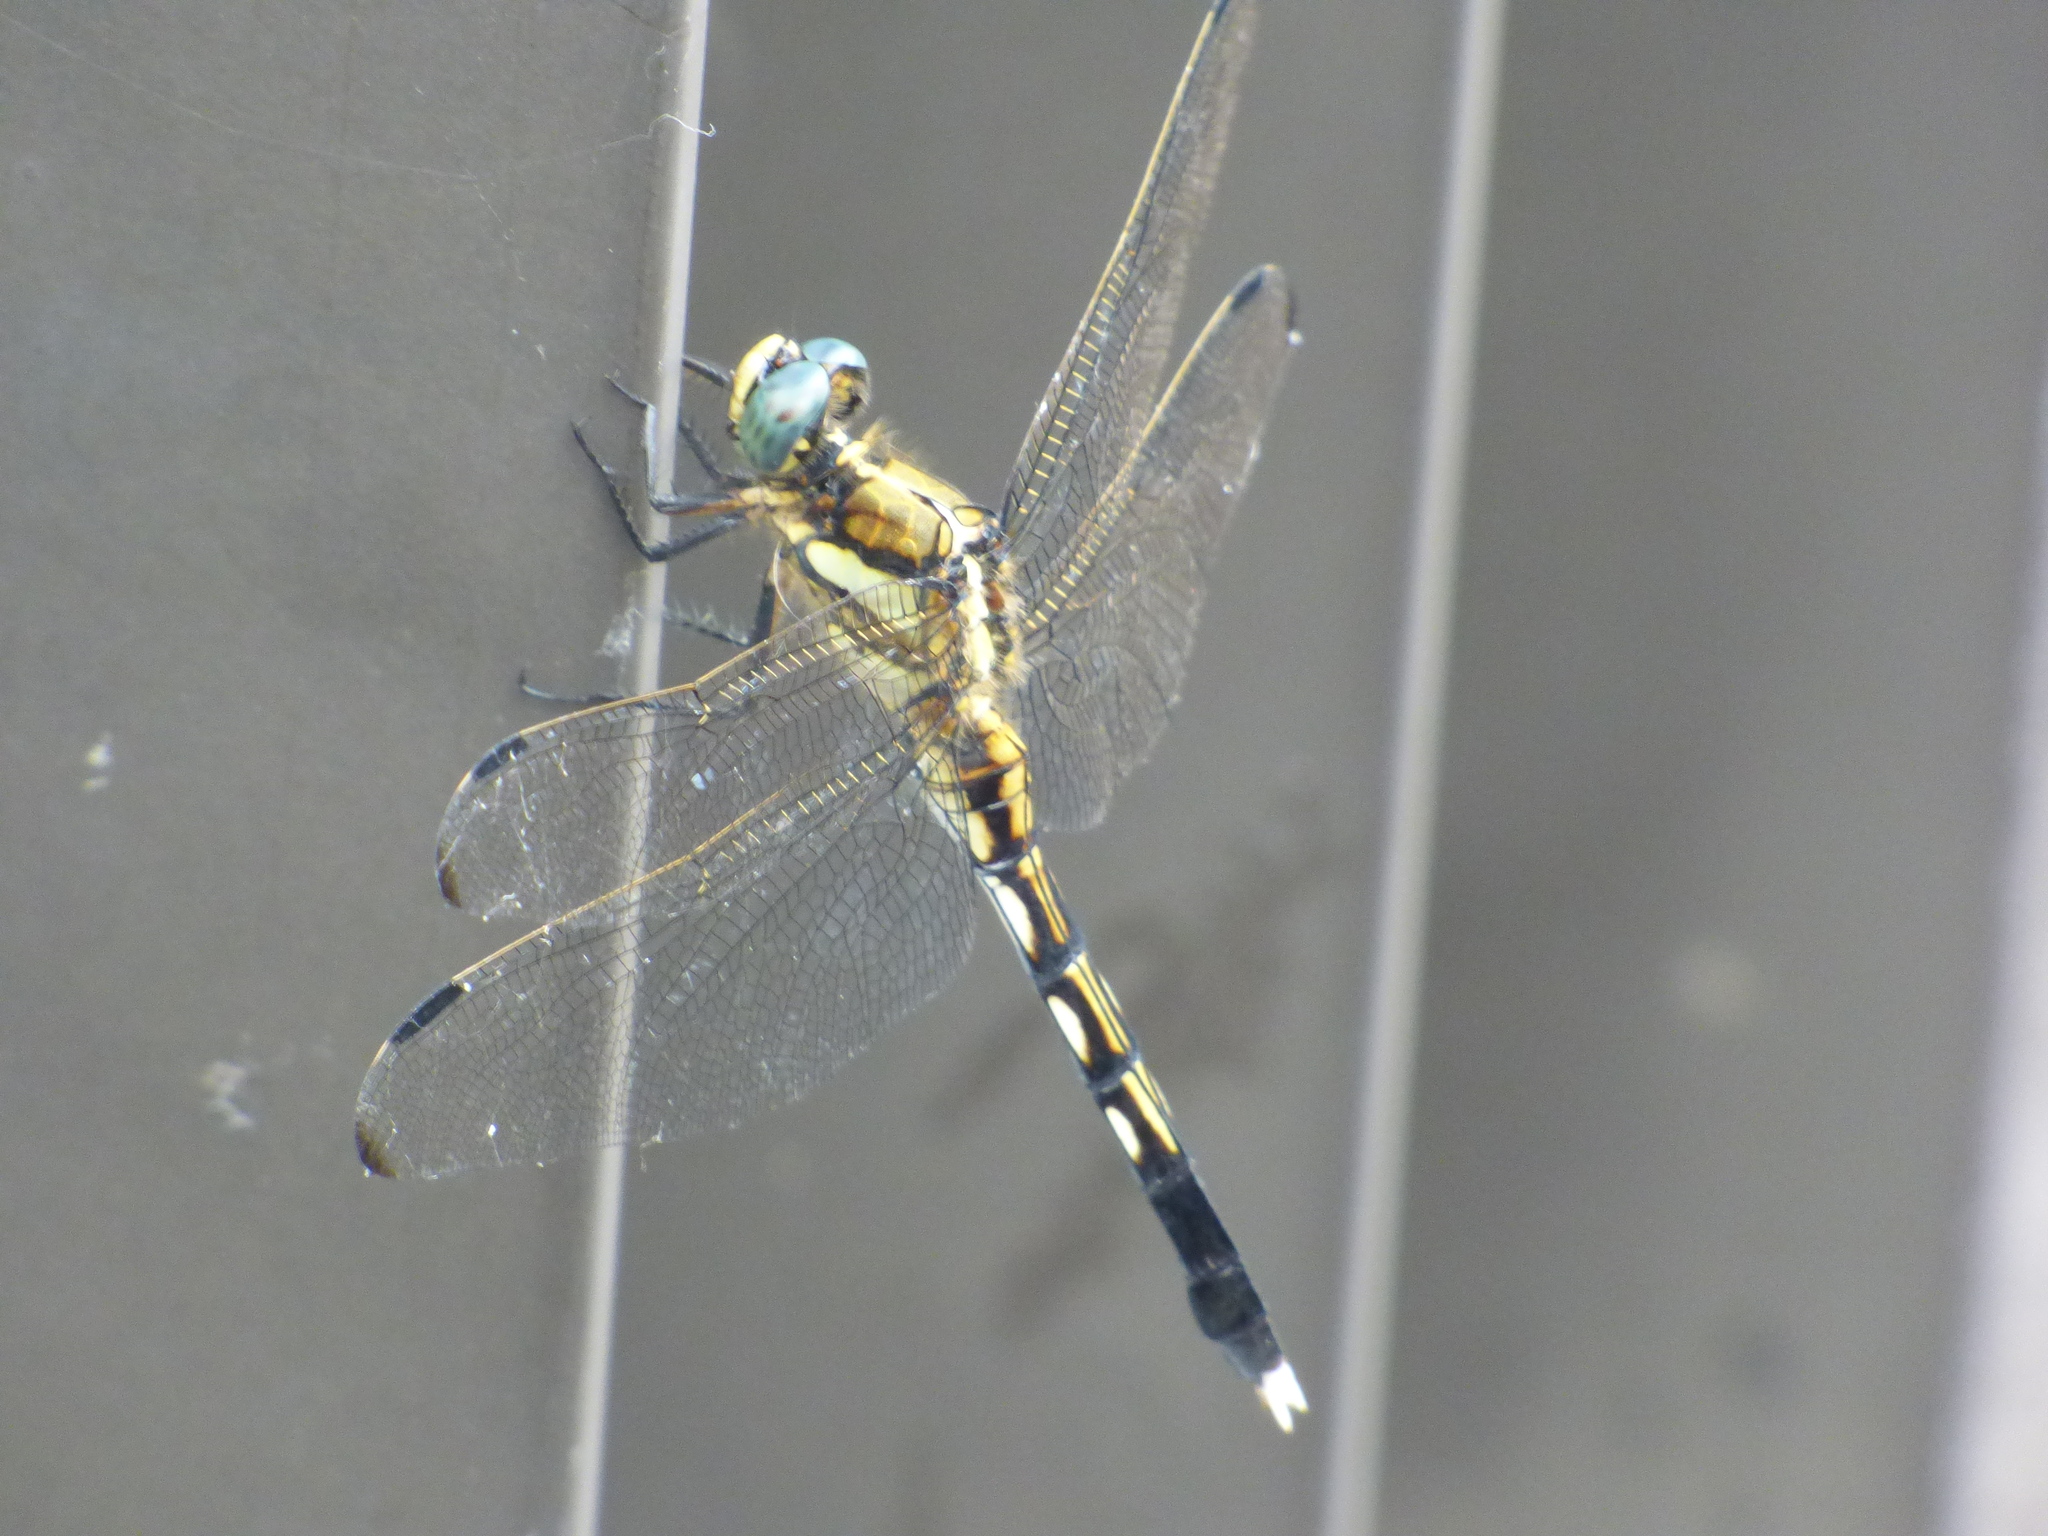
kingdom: Animalia
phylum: Arthropoda
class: Insecta
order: Odonata
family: Libellulidae
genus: Orthetrum
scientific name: Orthetrum albistylum
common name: White-tailed skimmer
